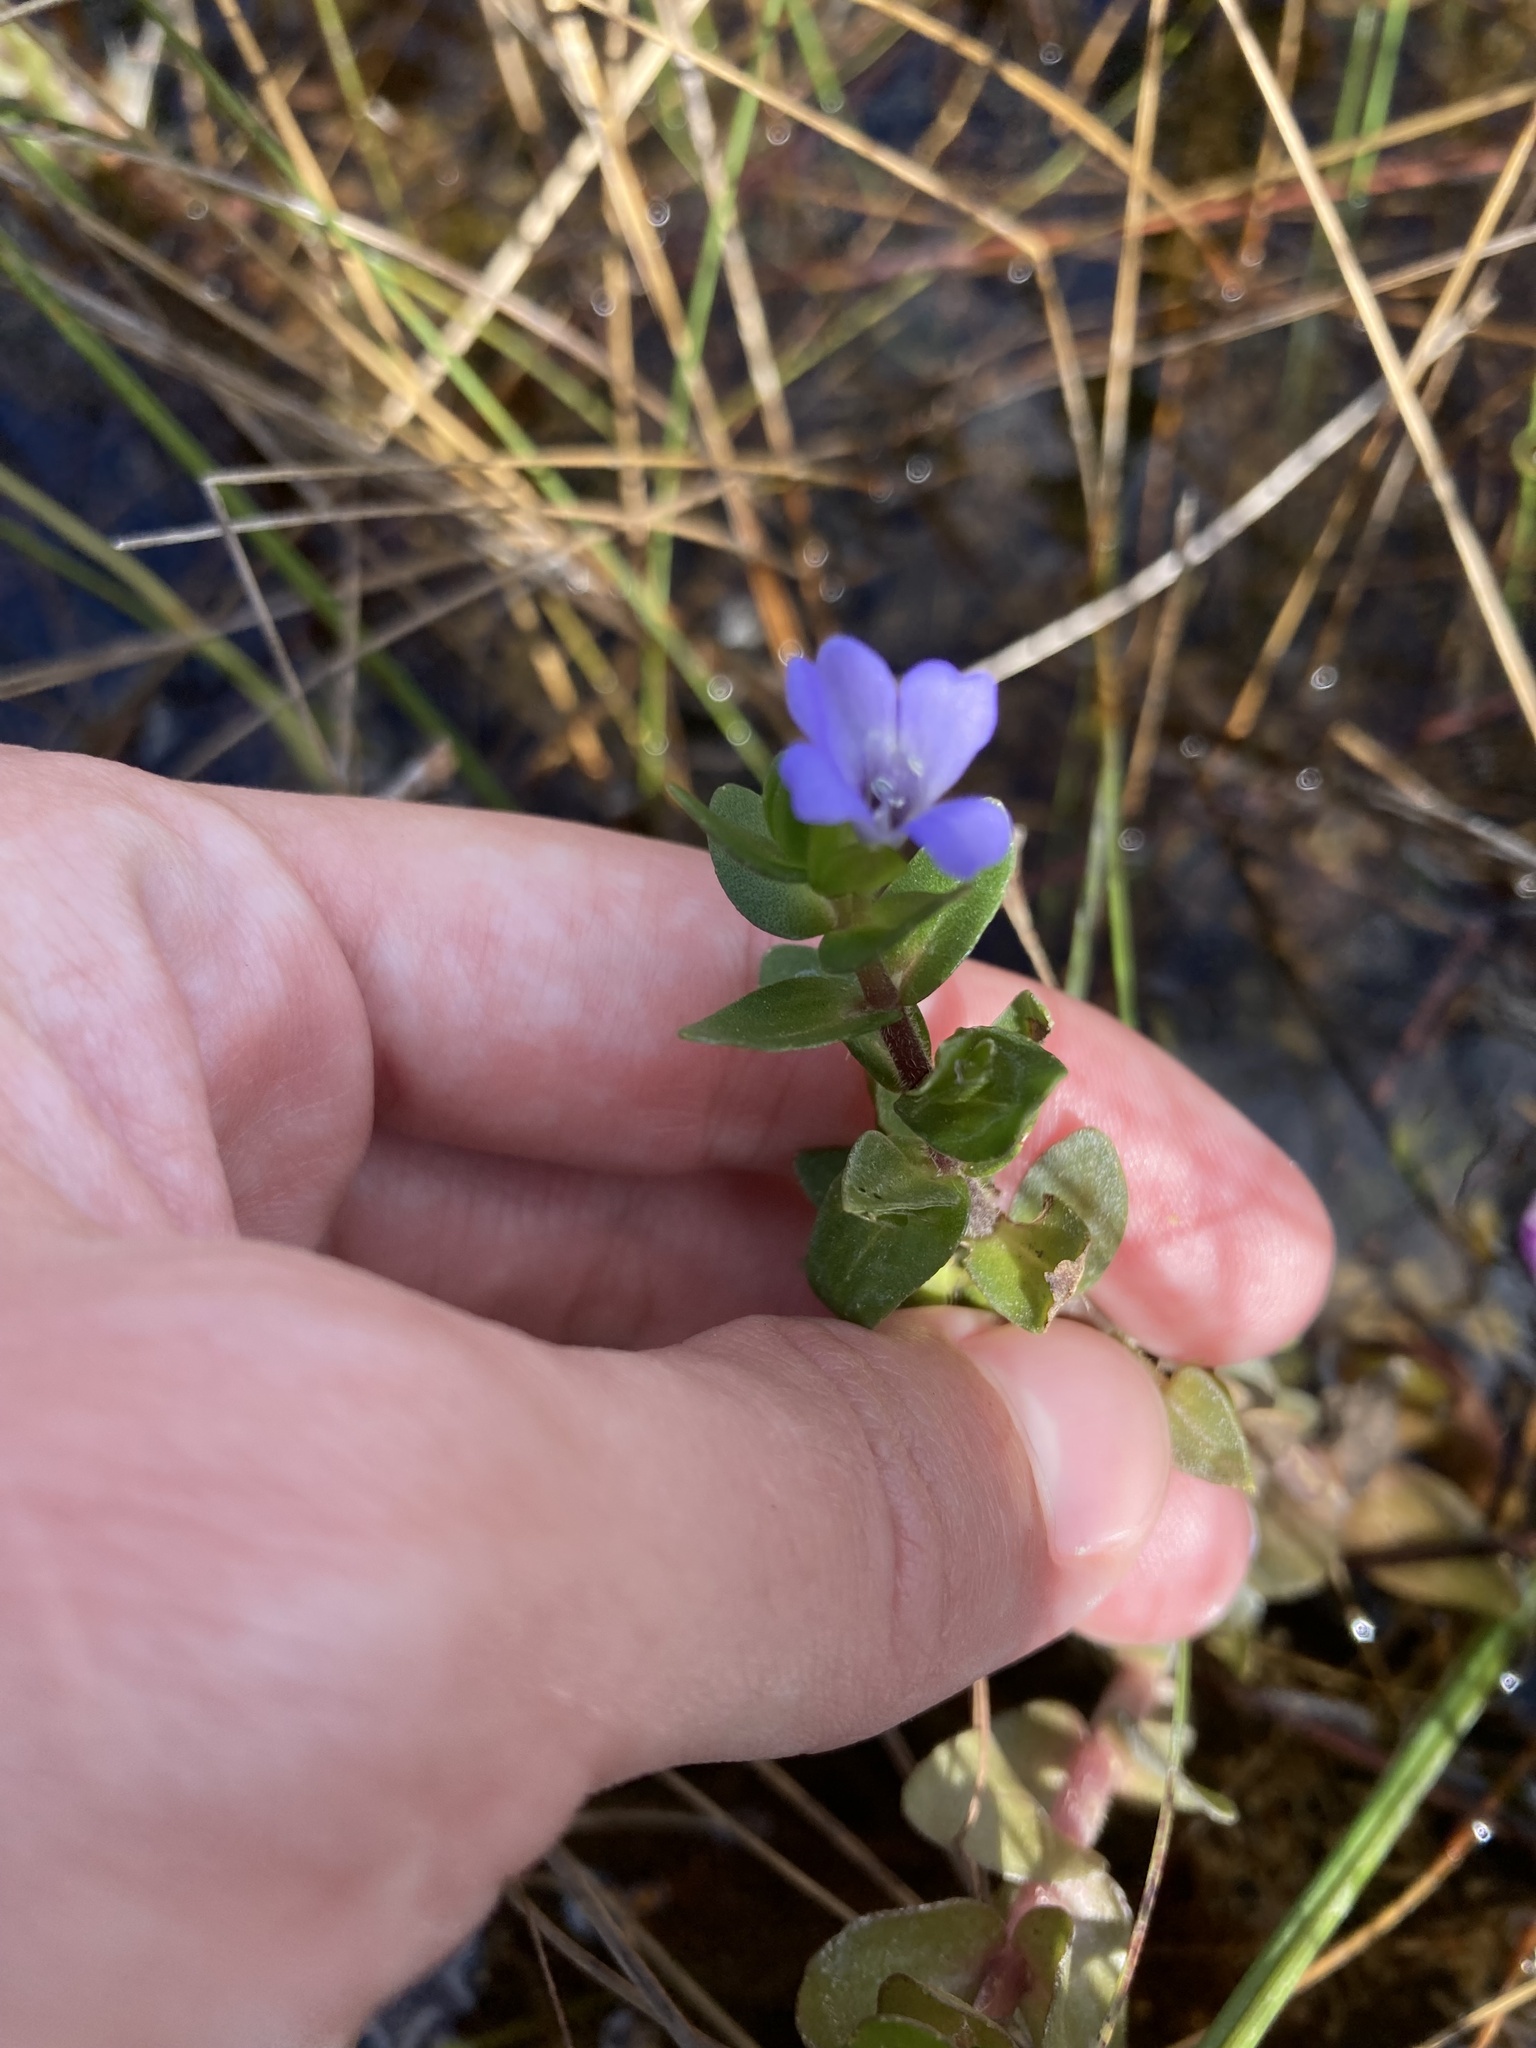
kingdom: Plantae
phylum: Tracheophyta
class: Magnoliopsida
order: Lamiales
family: Plantaginaceae
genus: Bacopa
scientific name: Bacopa caroliniana
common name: Lemon bacopa
